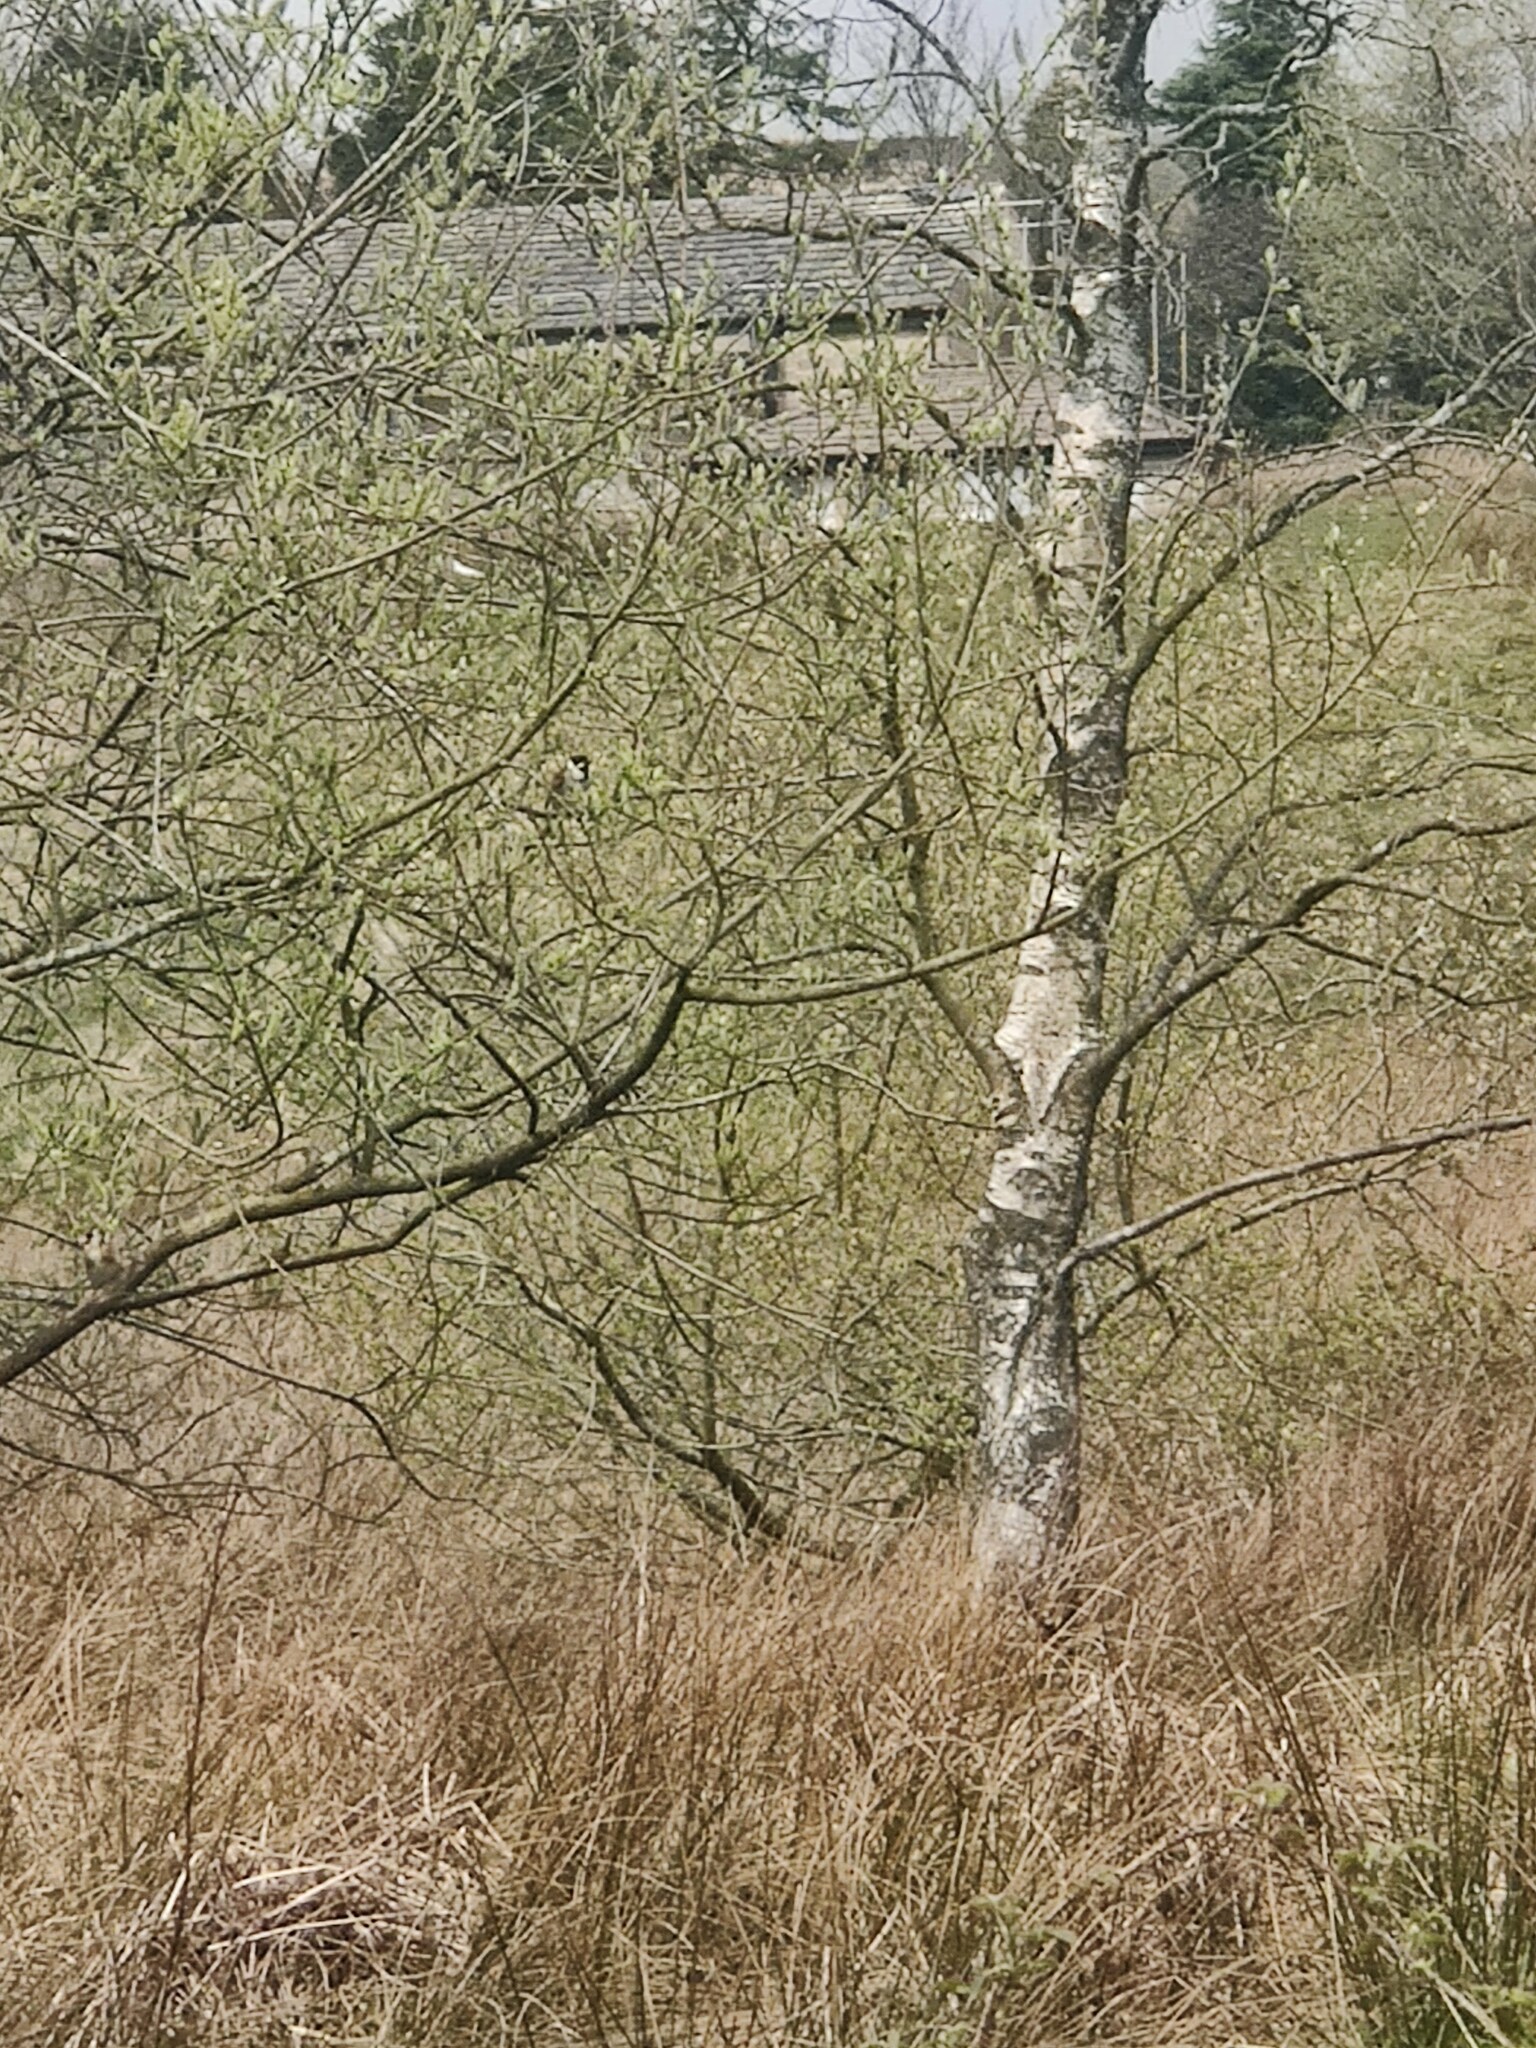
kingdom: Animalia
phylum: Chordata
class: Aves
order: Passeriformes
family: Emberizidae
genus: Emberiza
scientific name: Emberiza schoeniclus
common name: Reed bunting
